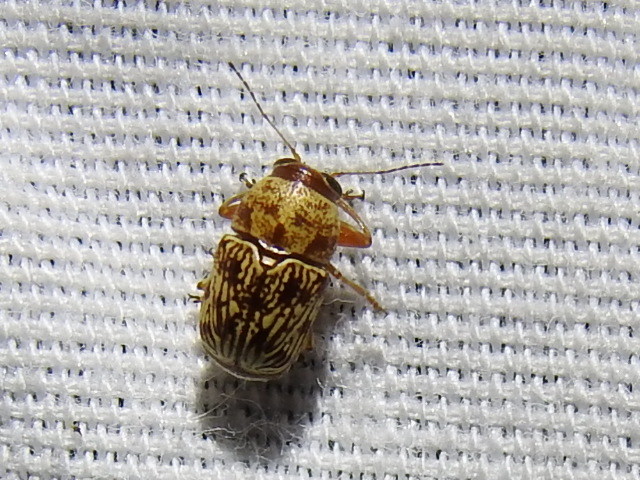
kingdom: Animalia
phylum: Arthropoda
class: Insecta
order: Coleoptera
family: Chrysomelidae
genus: Pachybrachis
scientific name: Pachybrachis
